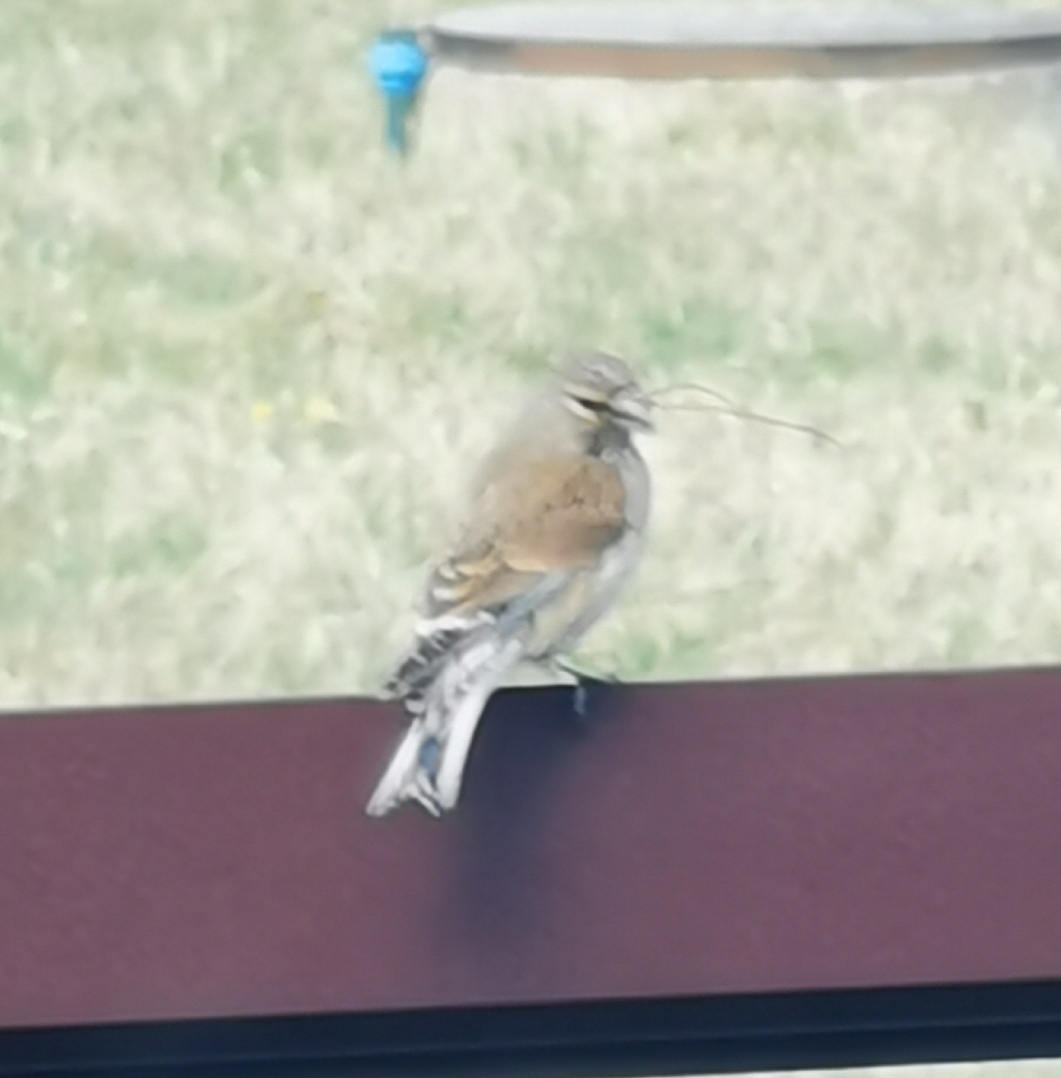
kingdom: Animalia
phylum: Chordata
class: Aves
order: Passeriformes
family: Fringillidae
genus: Linaria
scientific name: Linaria cannabina
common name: Common linnet
